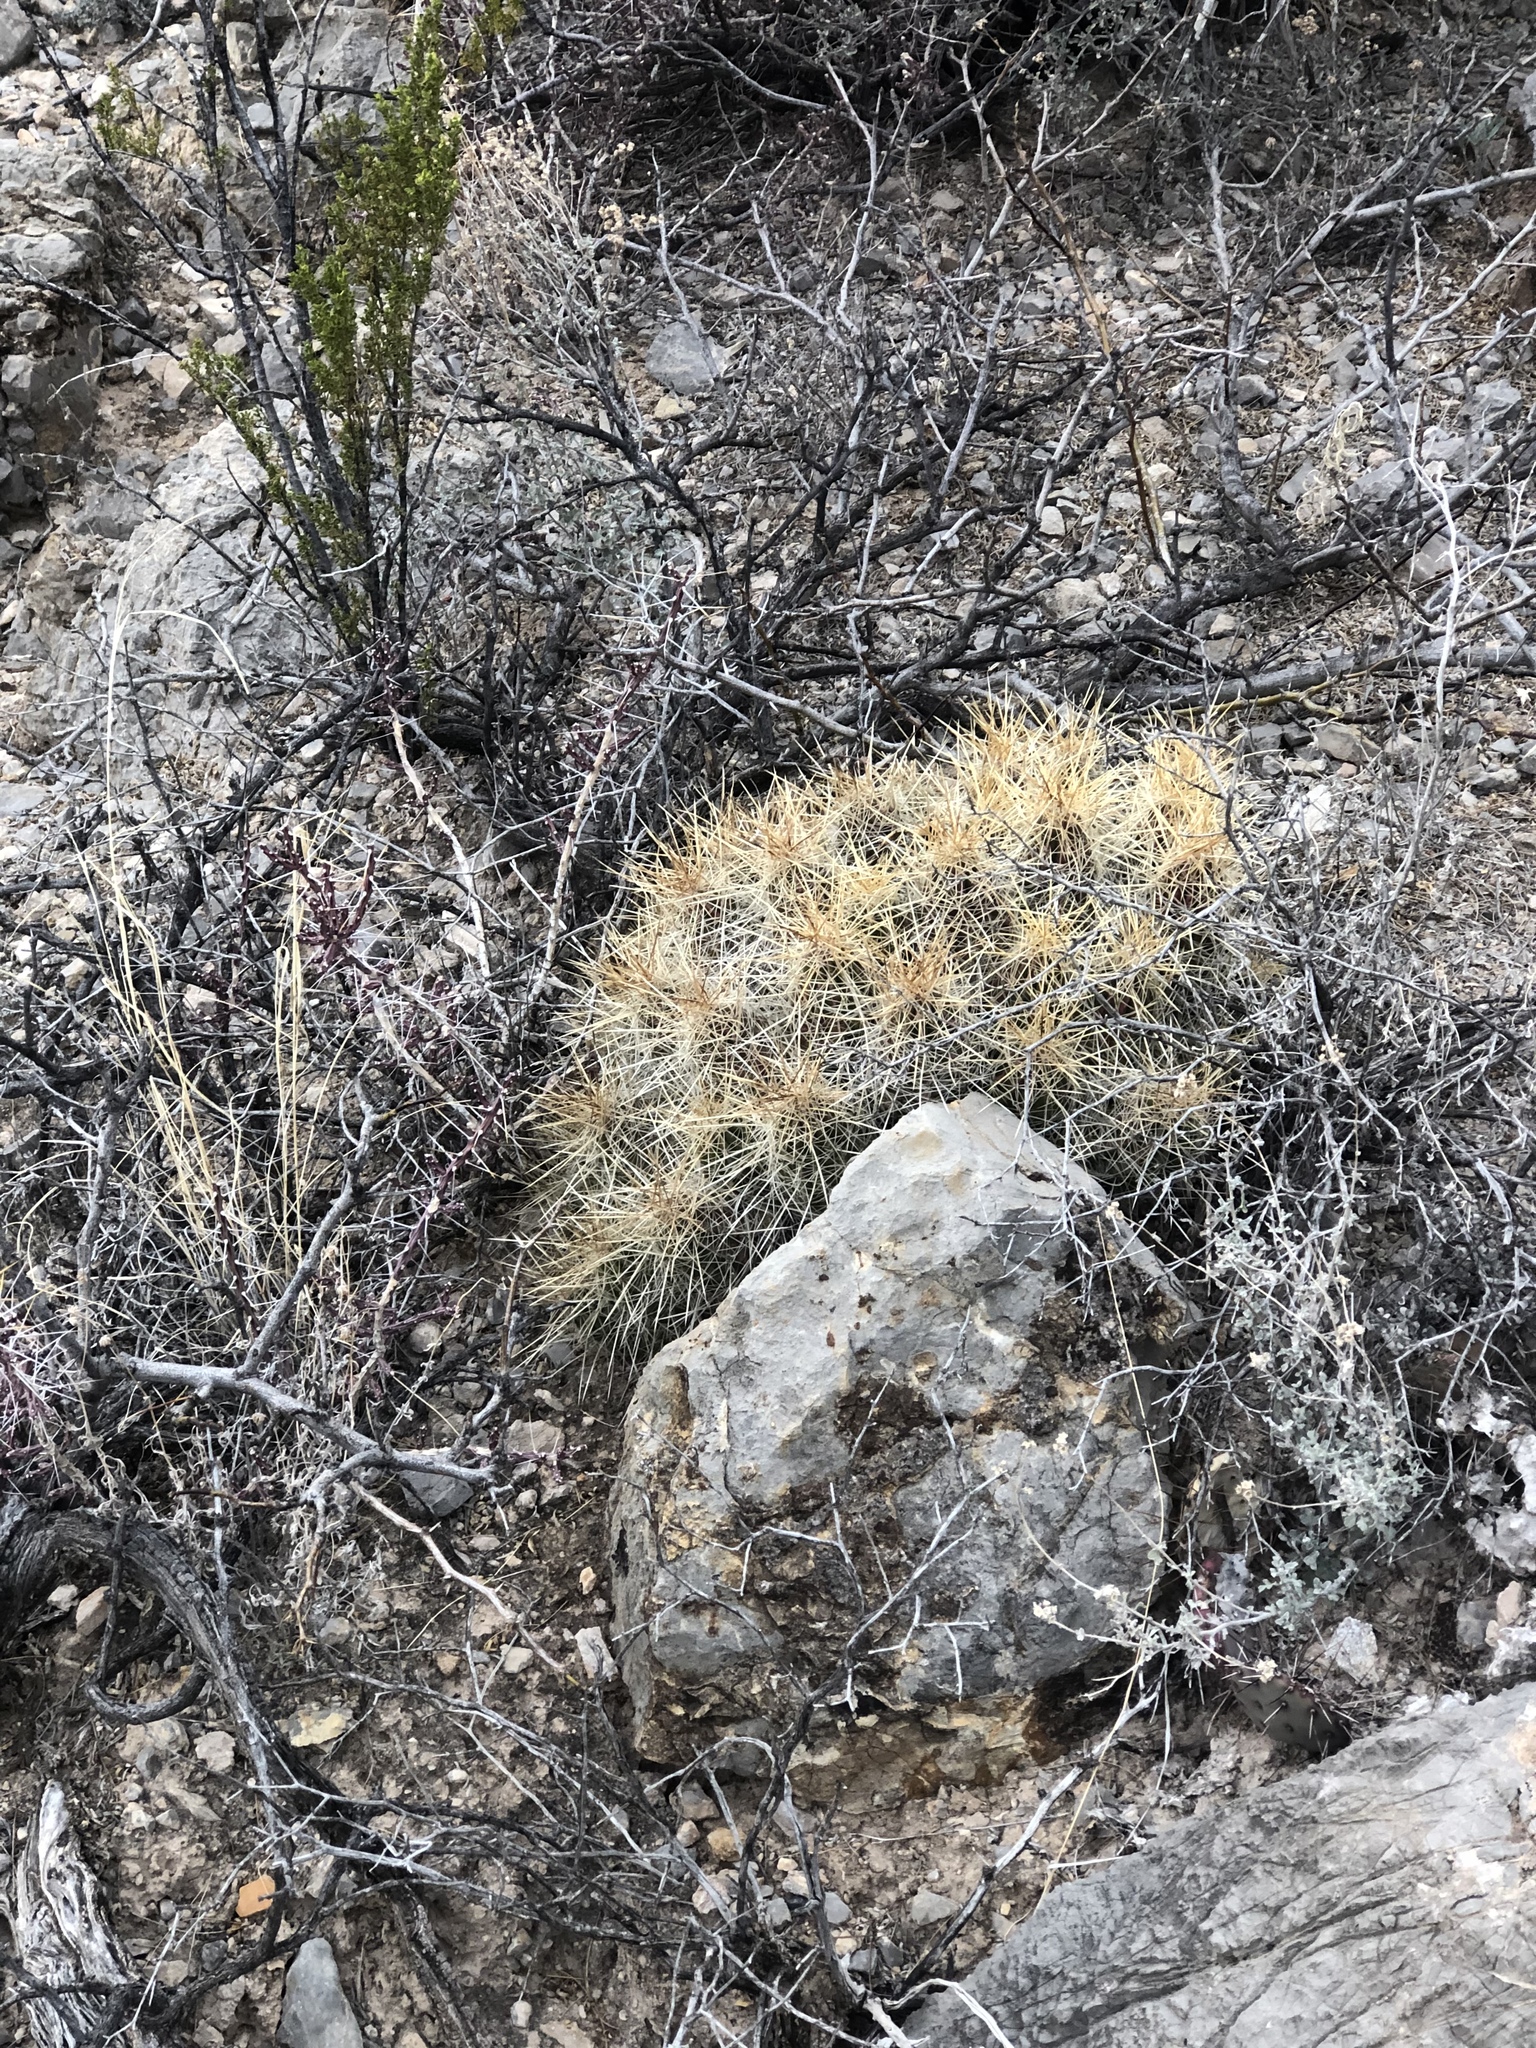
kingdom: Plantae
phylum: Tracheophyta
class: Magnoliopsida
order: Caryophyllales
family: Cactaceae
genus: Echinocereus
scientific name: Echinocereus stramineus
